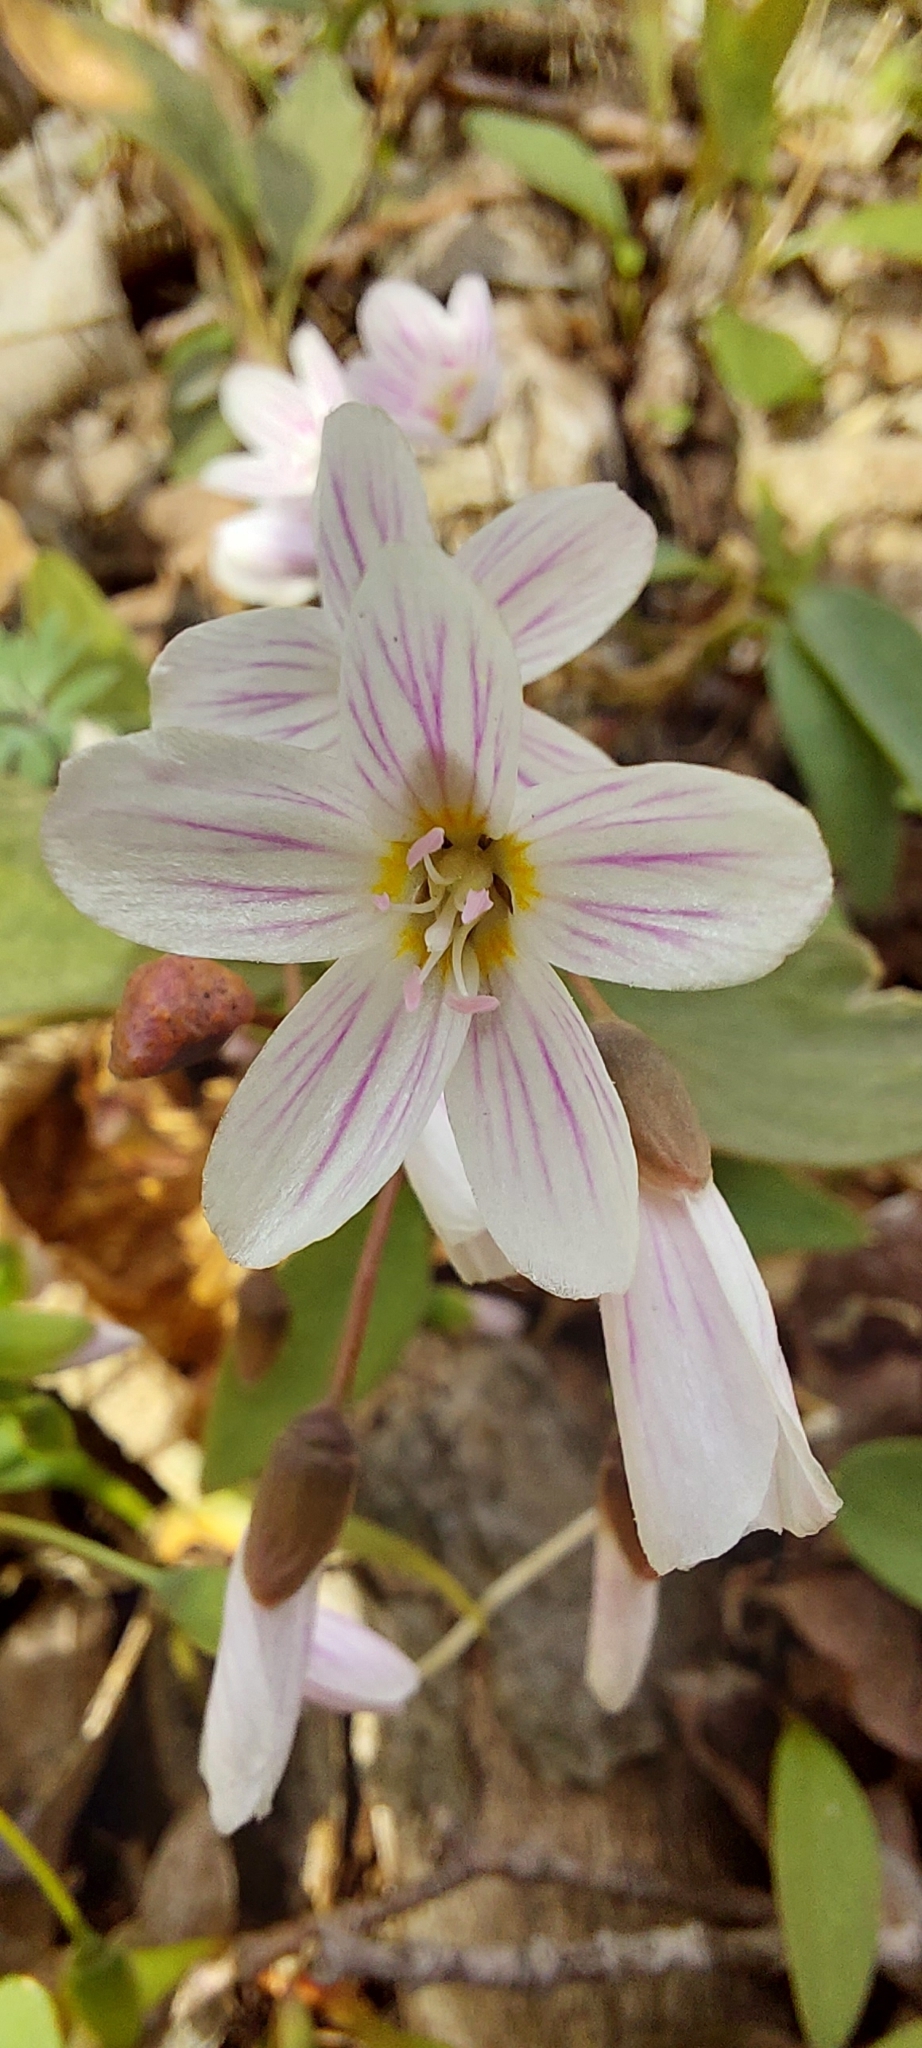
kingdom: Plantae
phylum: Tracheophyta
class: Magnoliopsida
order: Caryophyllales
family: Montiaceae
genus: Claytonia
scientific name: Claytonia caroliniana
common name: Carolina spring beauty
